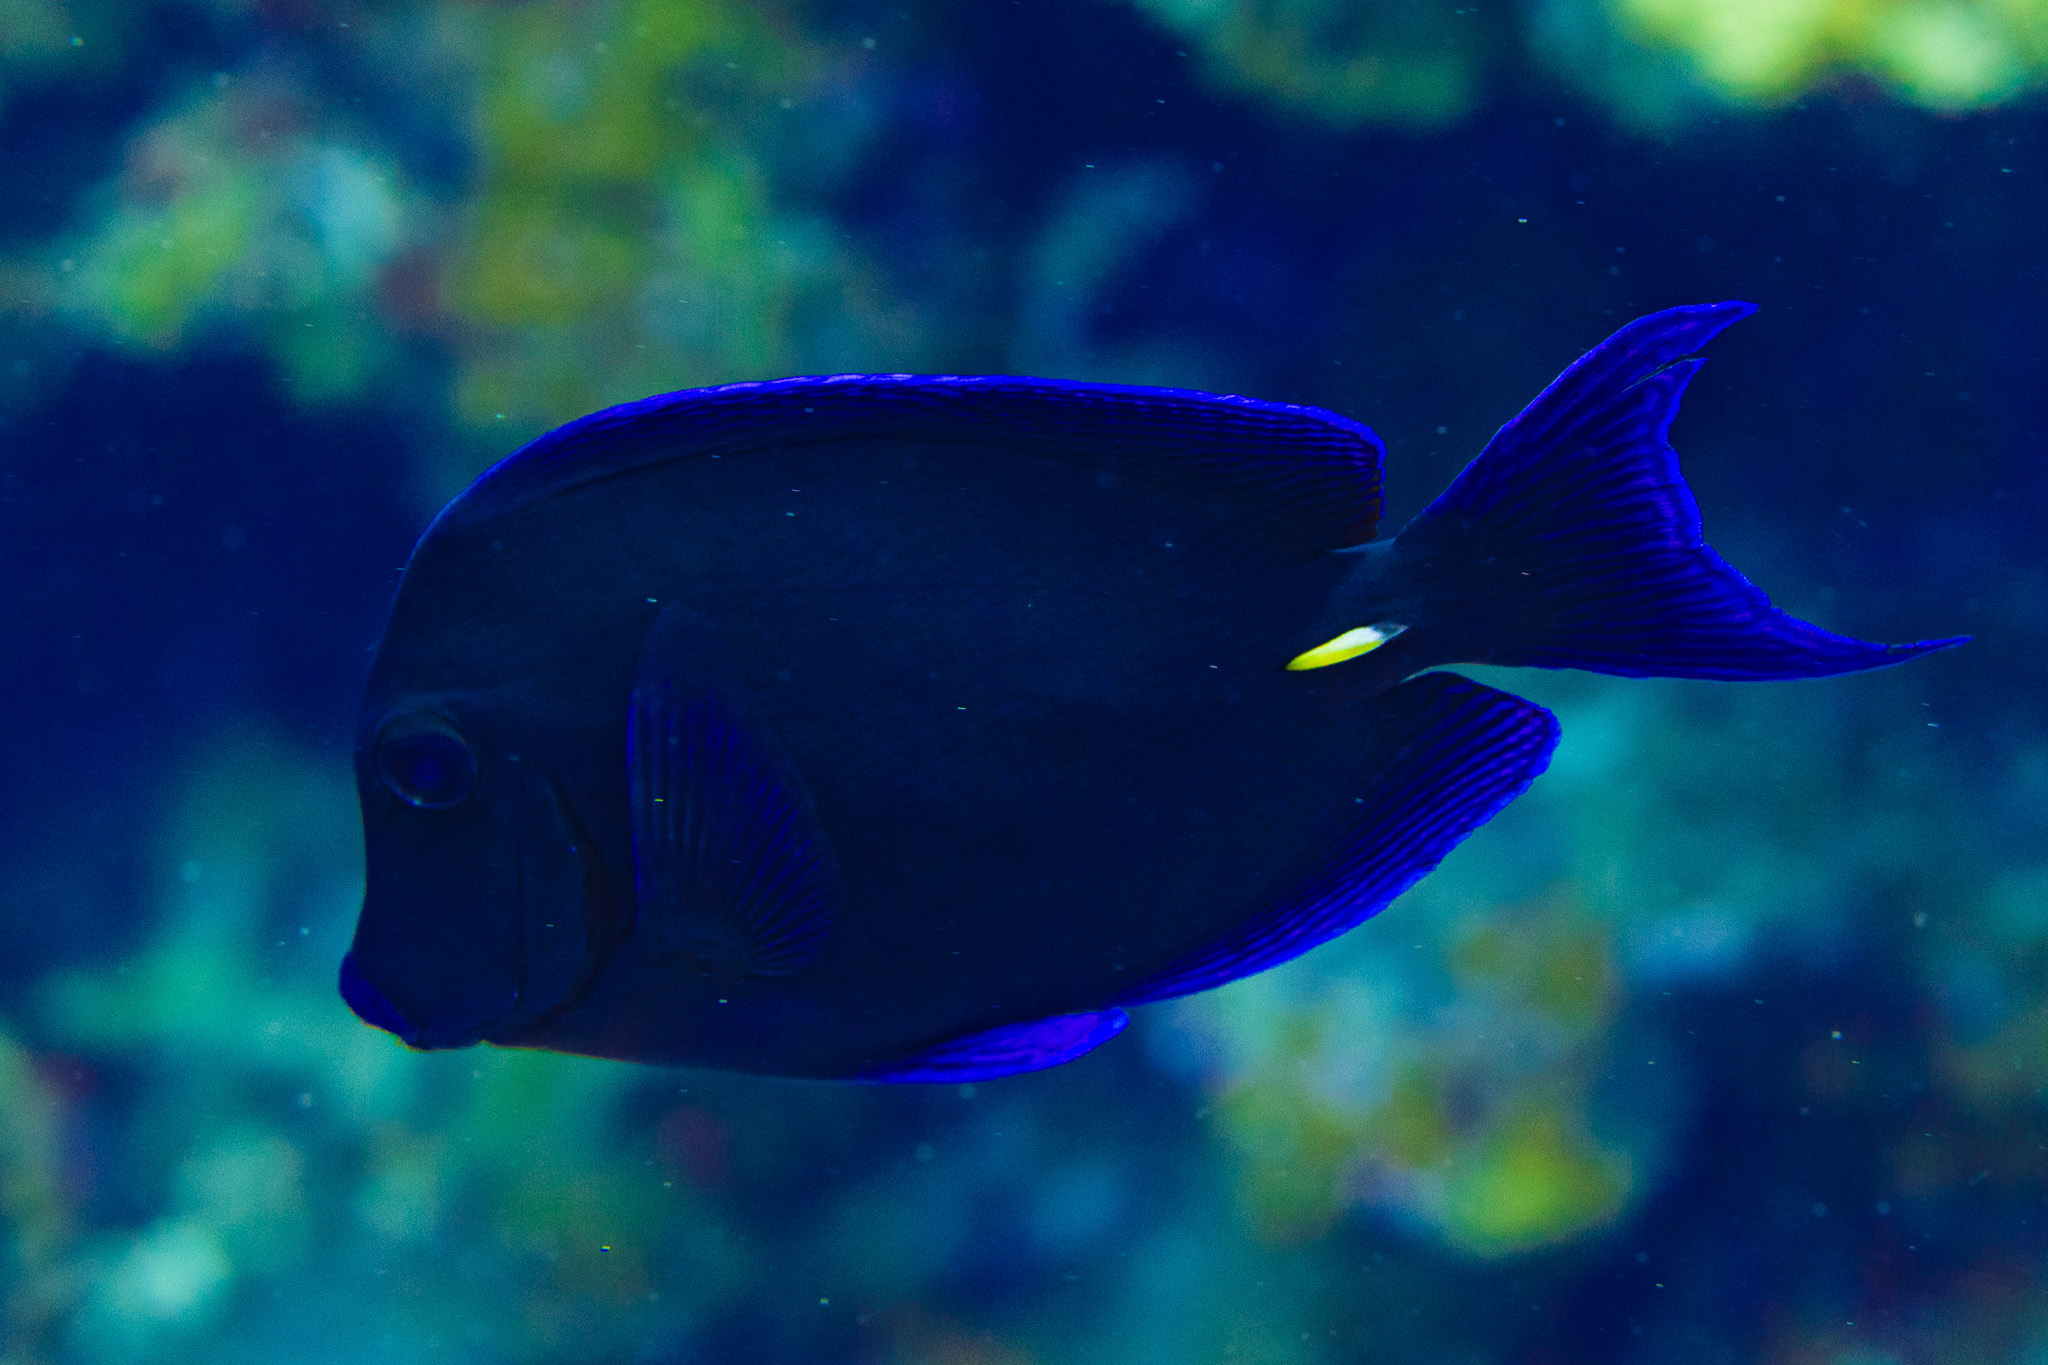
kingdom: Animalia
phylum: Chordata
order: Perciformes
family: Acanthuridae
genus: Acanthurus
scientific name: Acanthurus coeruleus
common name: Blue tang
